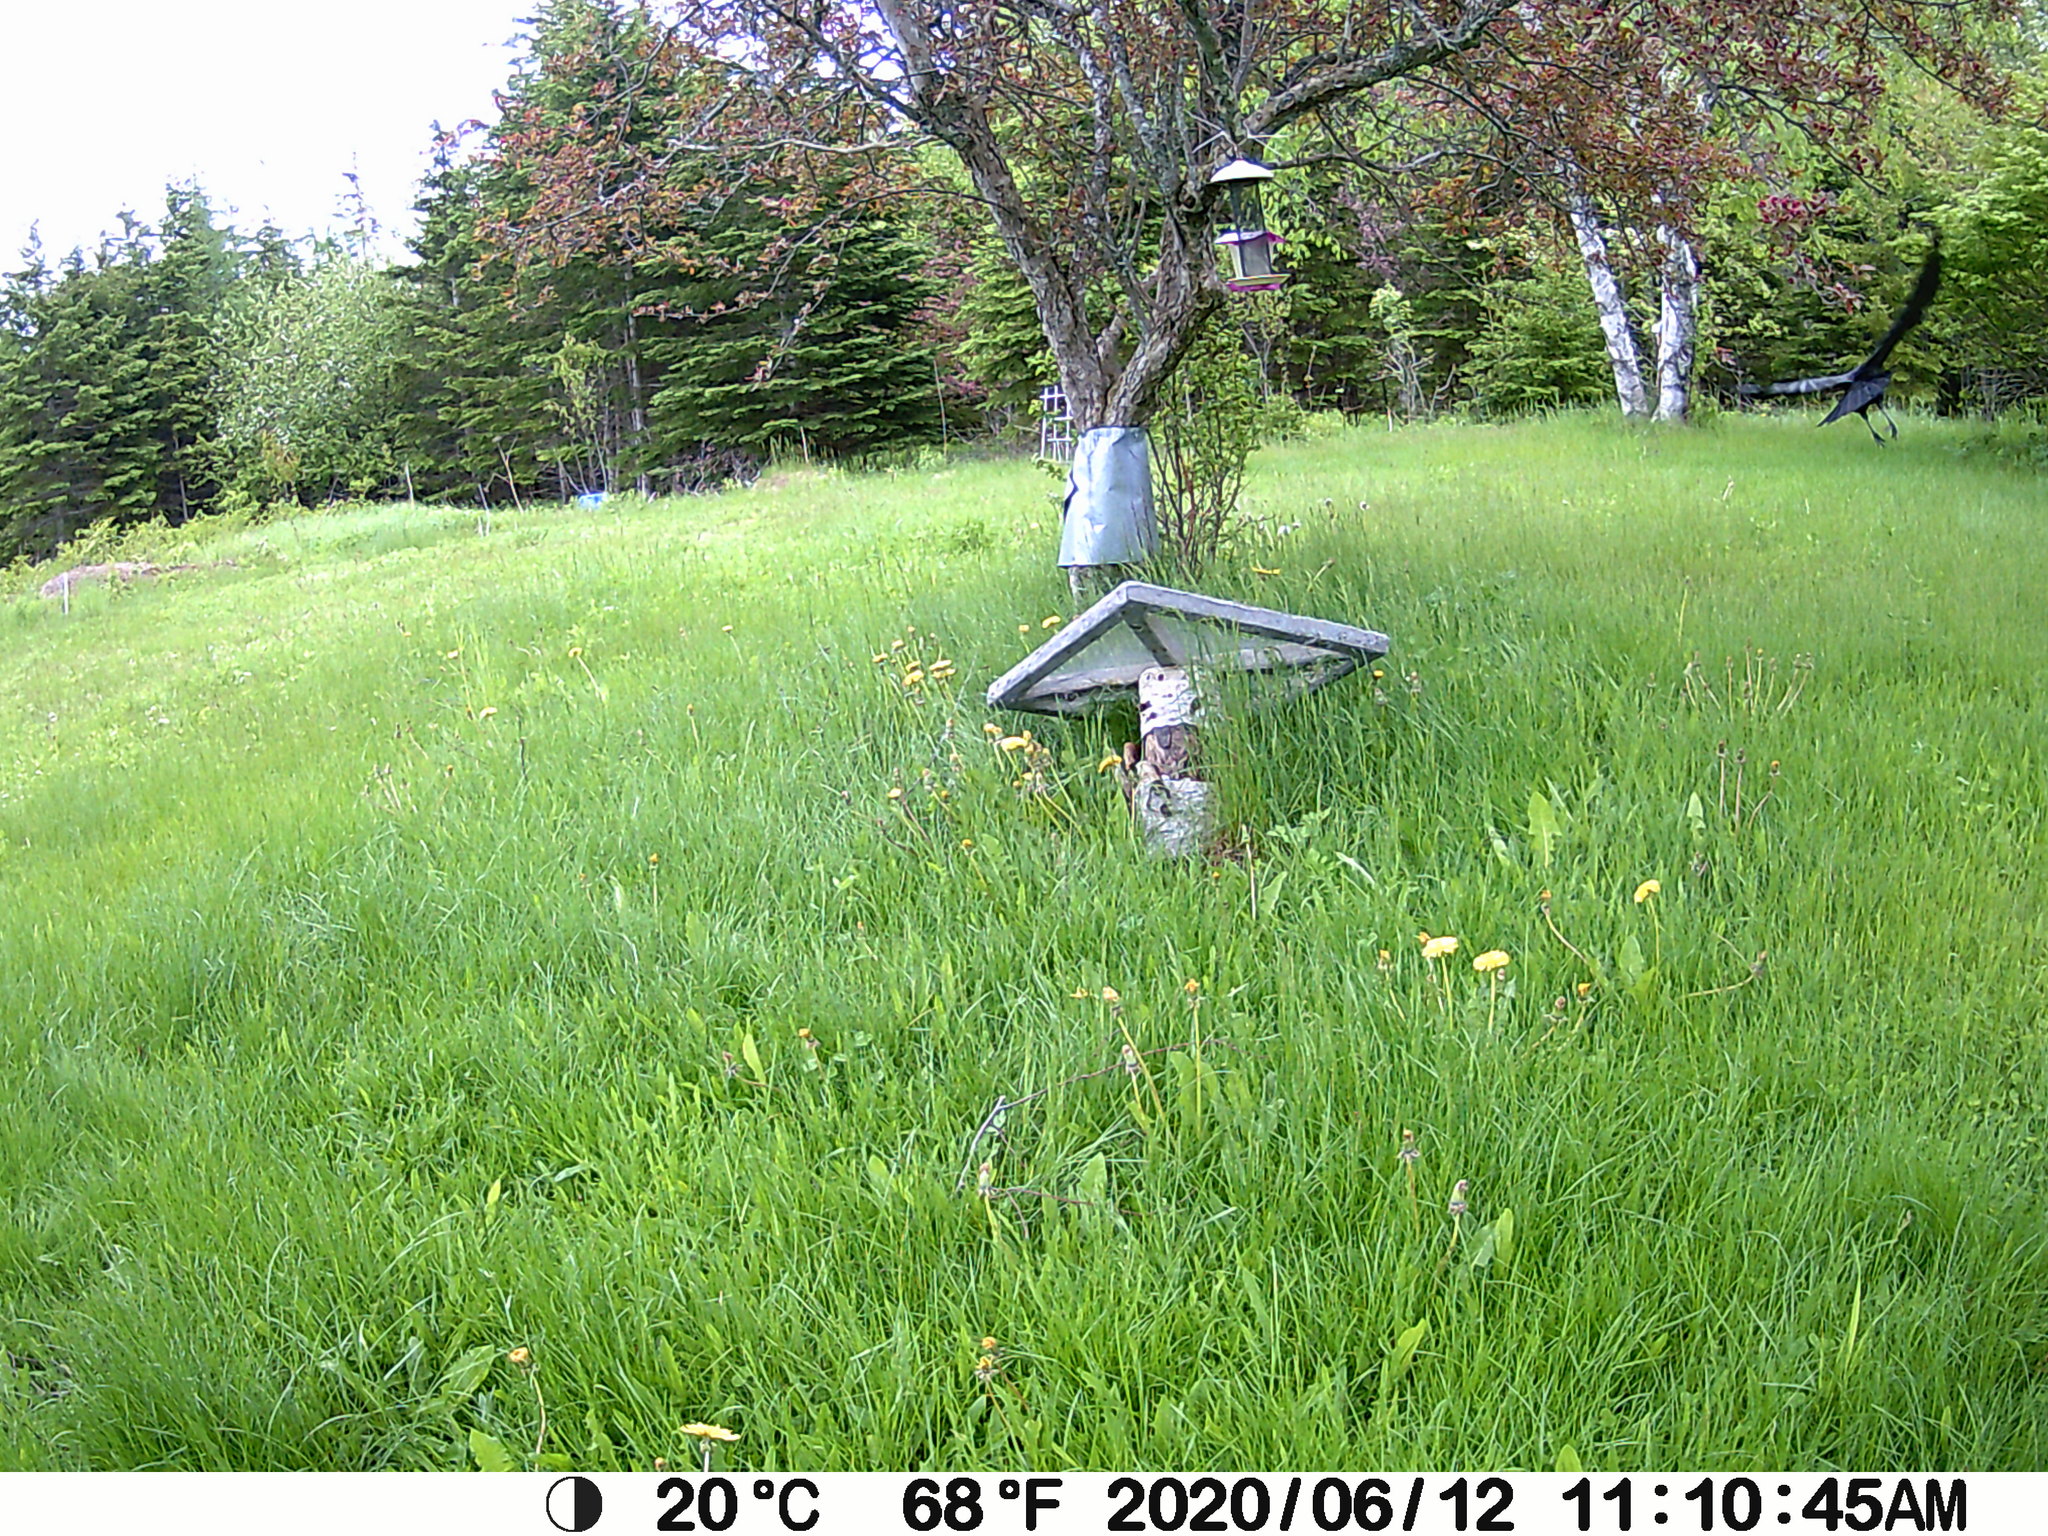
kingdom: Animalia
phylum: Chordata
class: Aves
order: Passeriformes
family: Corvidae
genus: Corvus
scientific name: Corvus brachyrhynchos
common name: American crow
